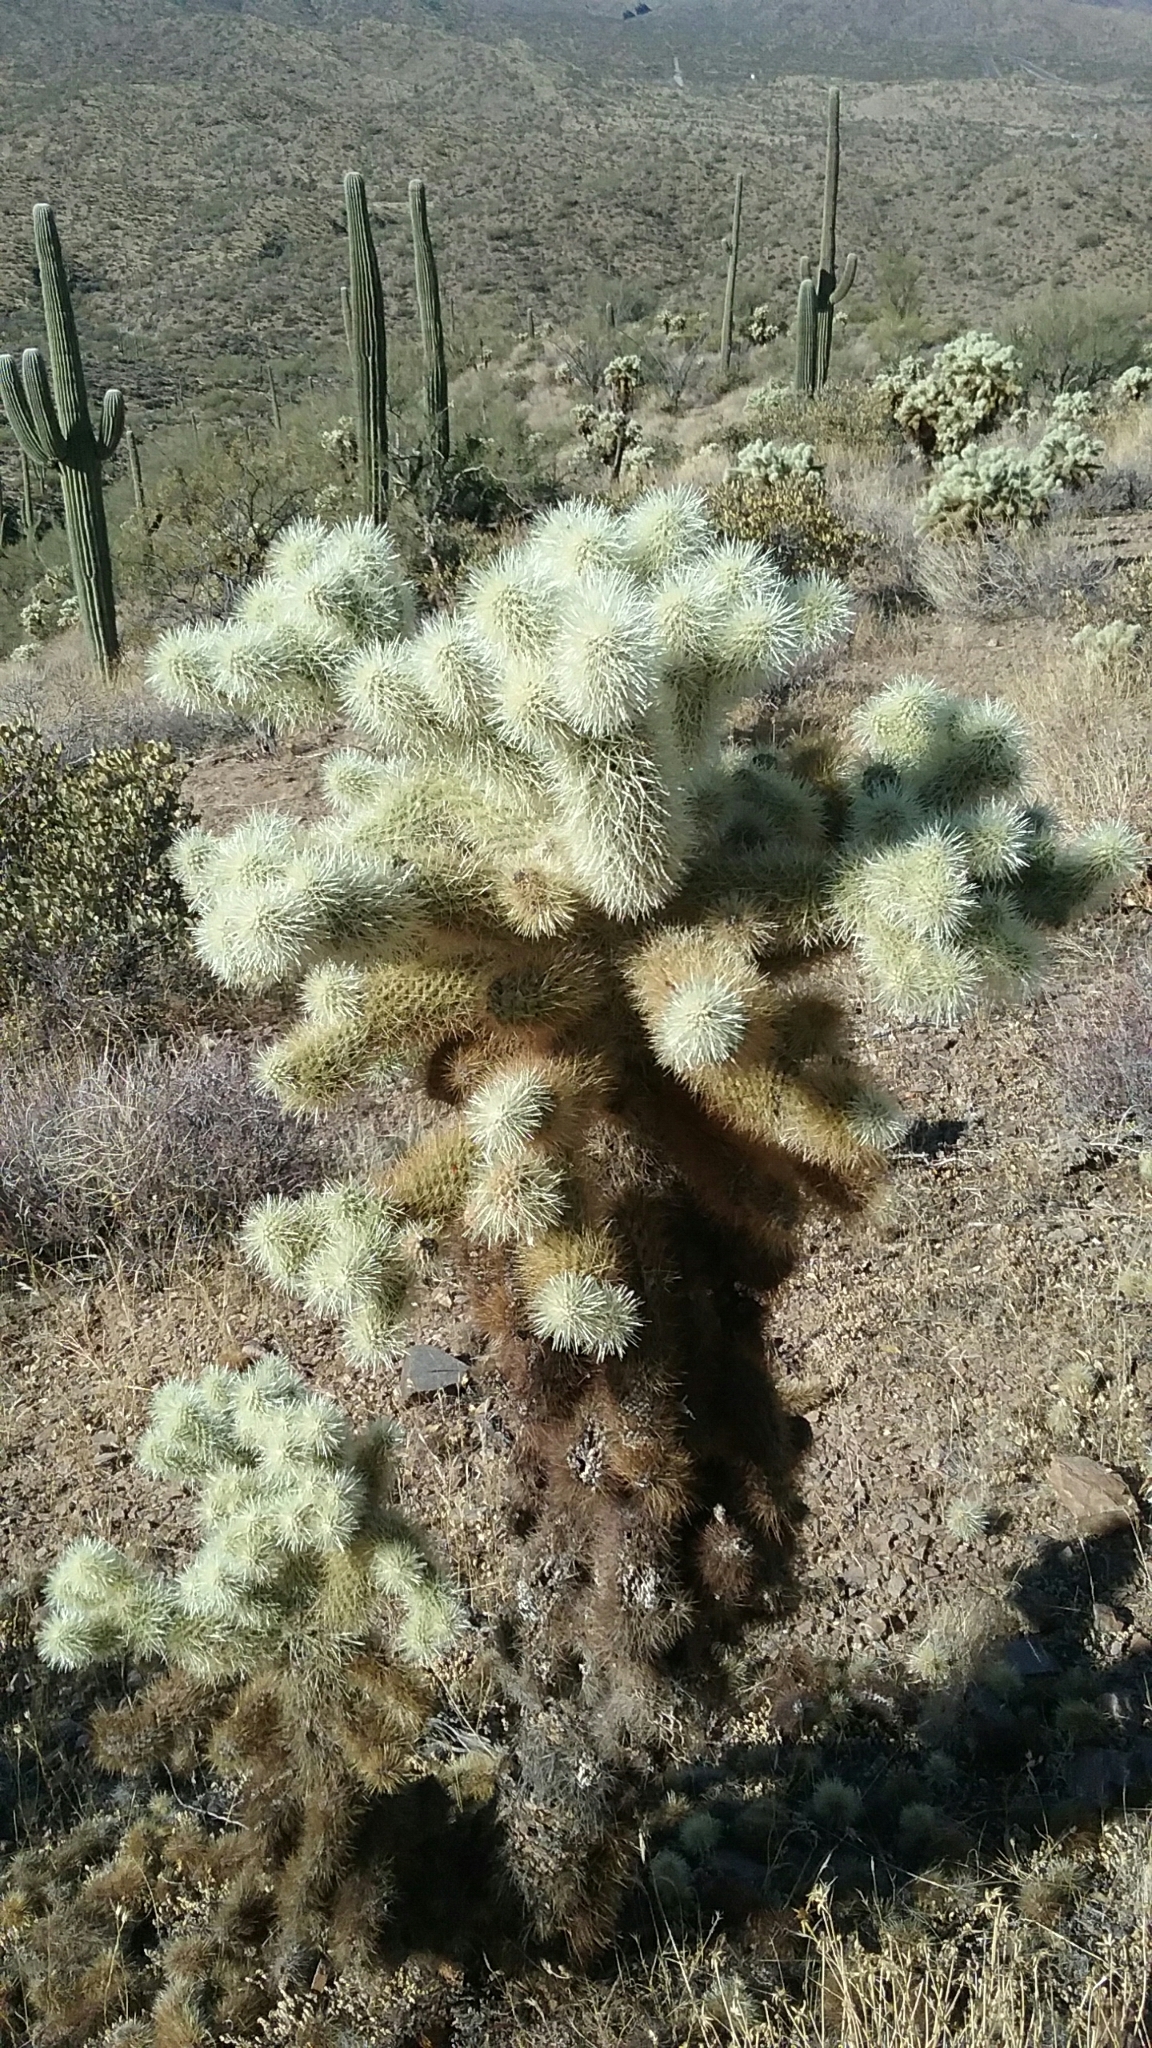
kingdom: Plantae
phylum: Tracheophyta
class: Magnoliopsida
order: Caryophyllales
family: Cactaceae
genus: Cylindropuntia
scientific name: Cylindropuntia fosbergii
